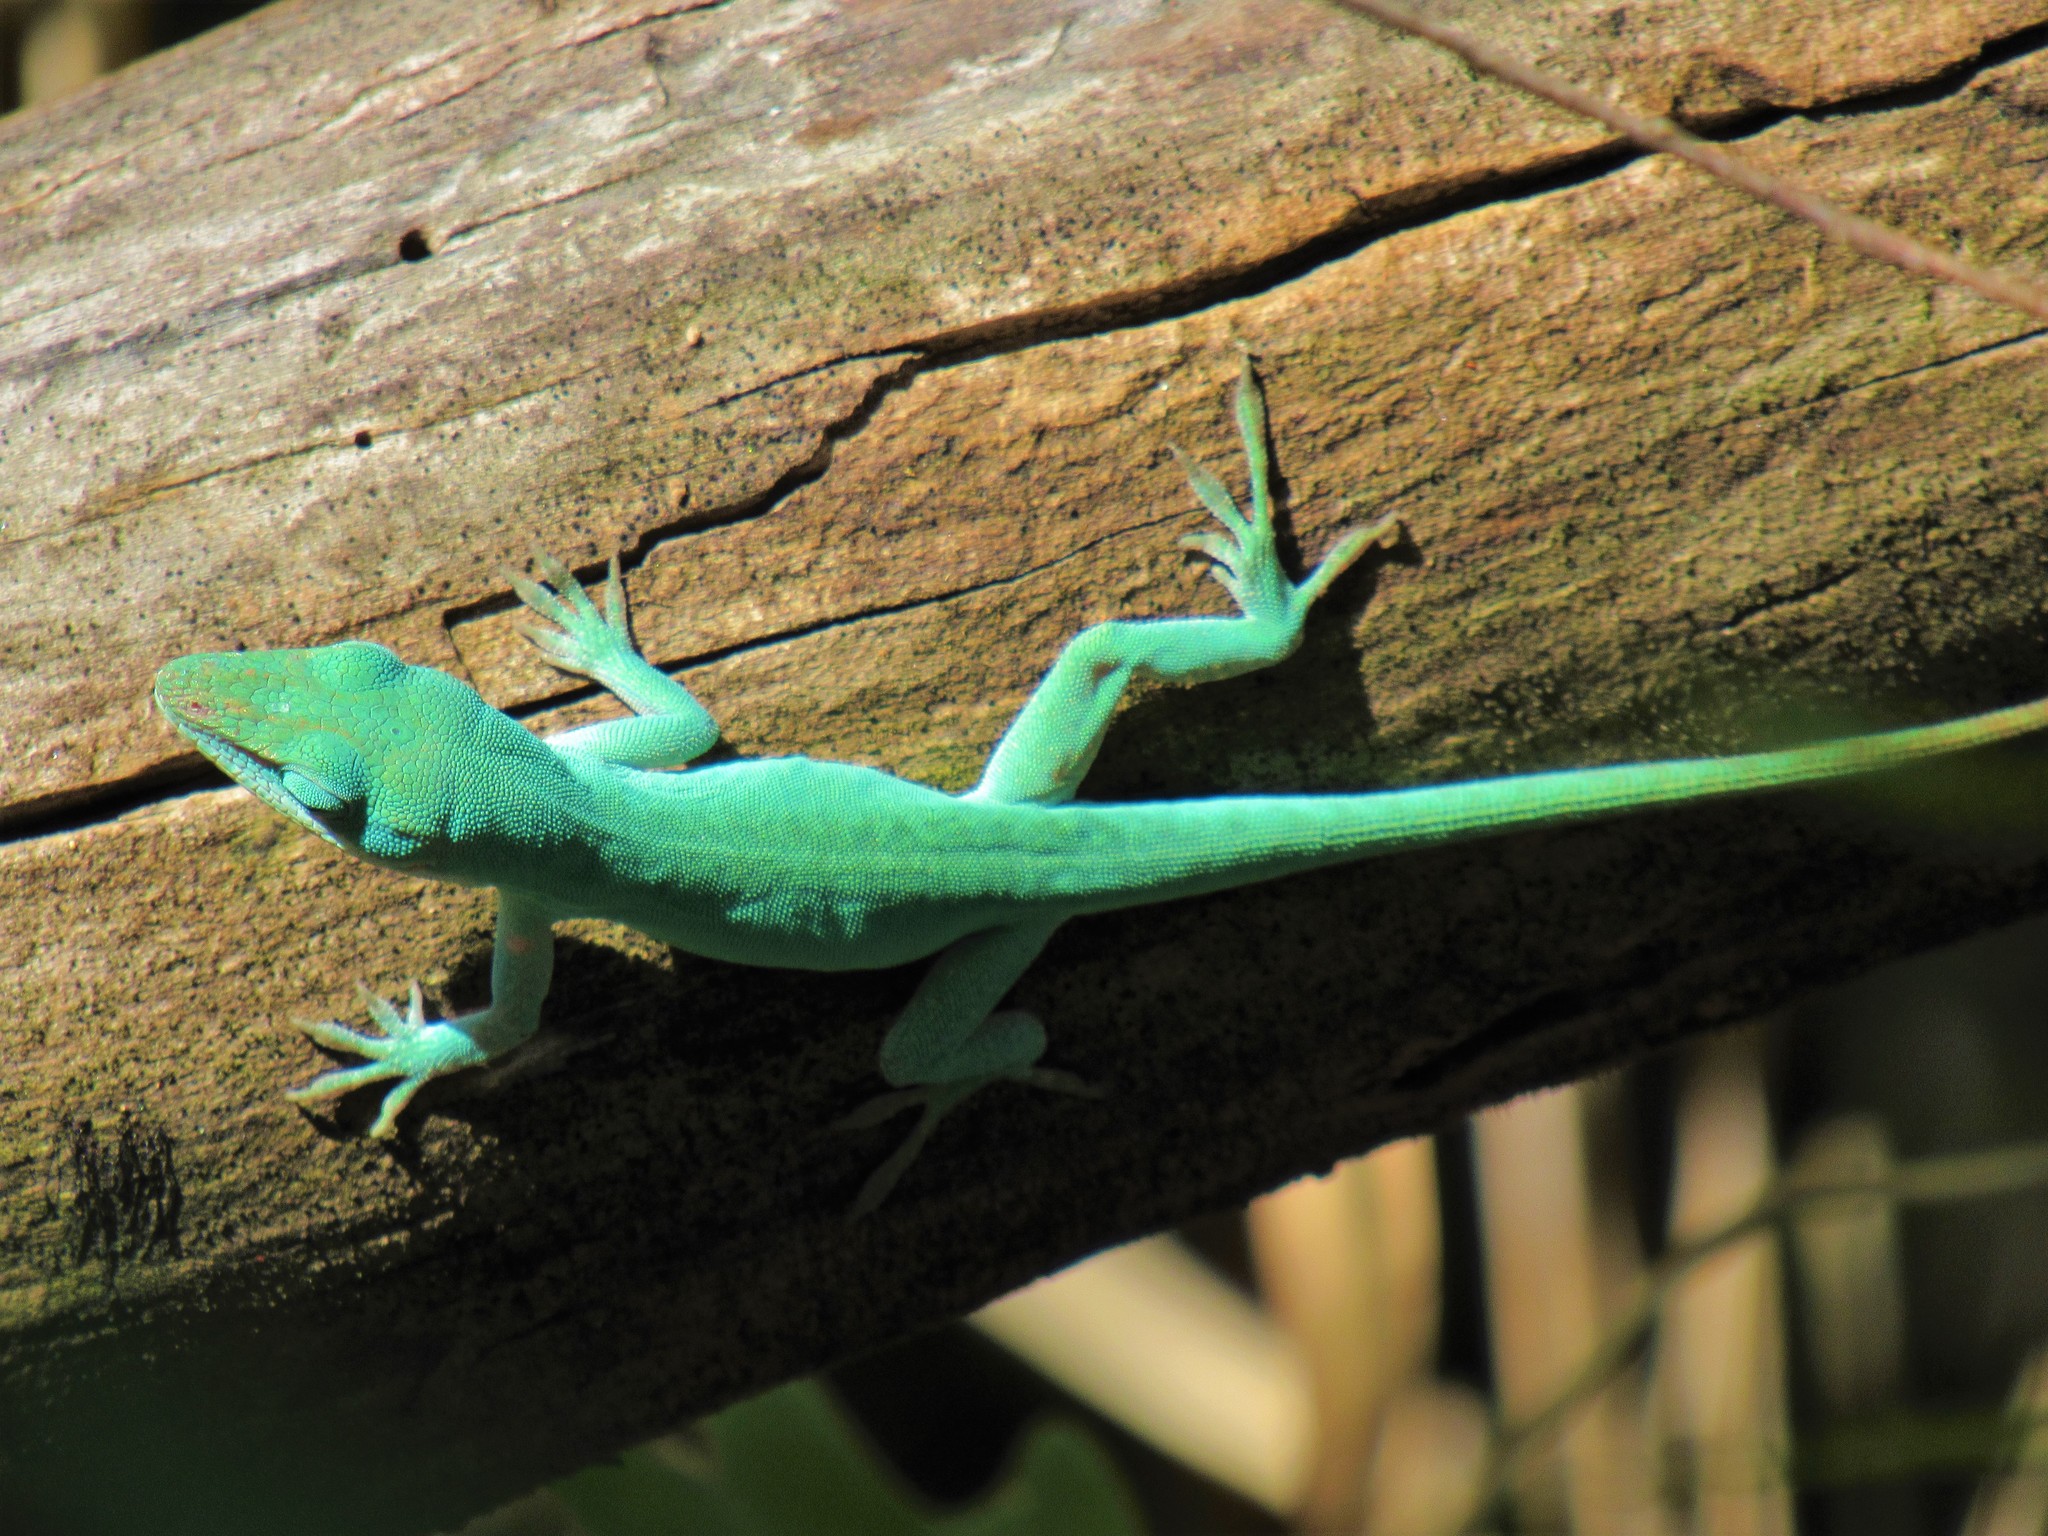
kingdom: Animalia
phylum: Chordata
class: Squamata
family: Dactyloidae
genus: Anolis
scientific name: Anolis carolinensis
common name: Green anole
